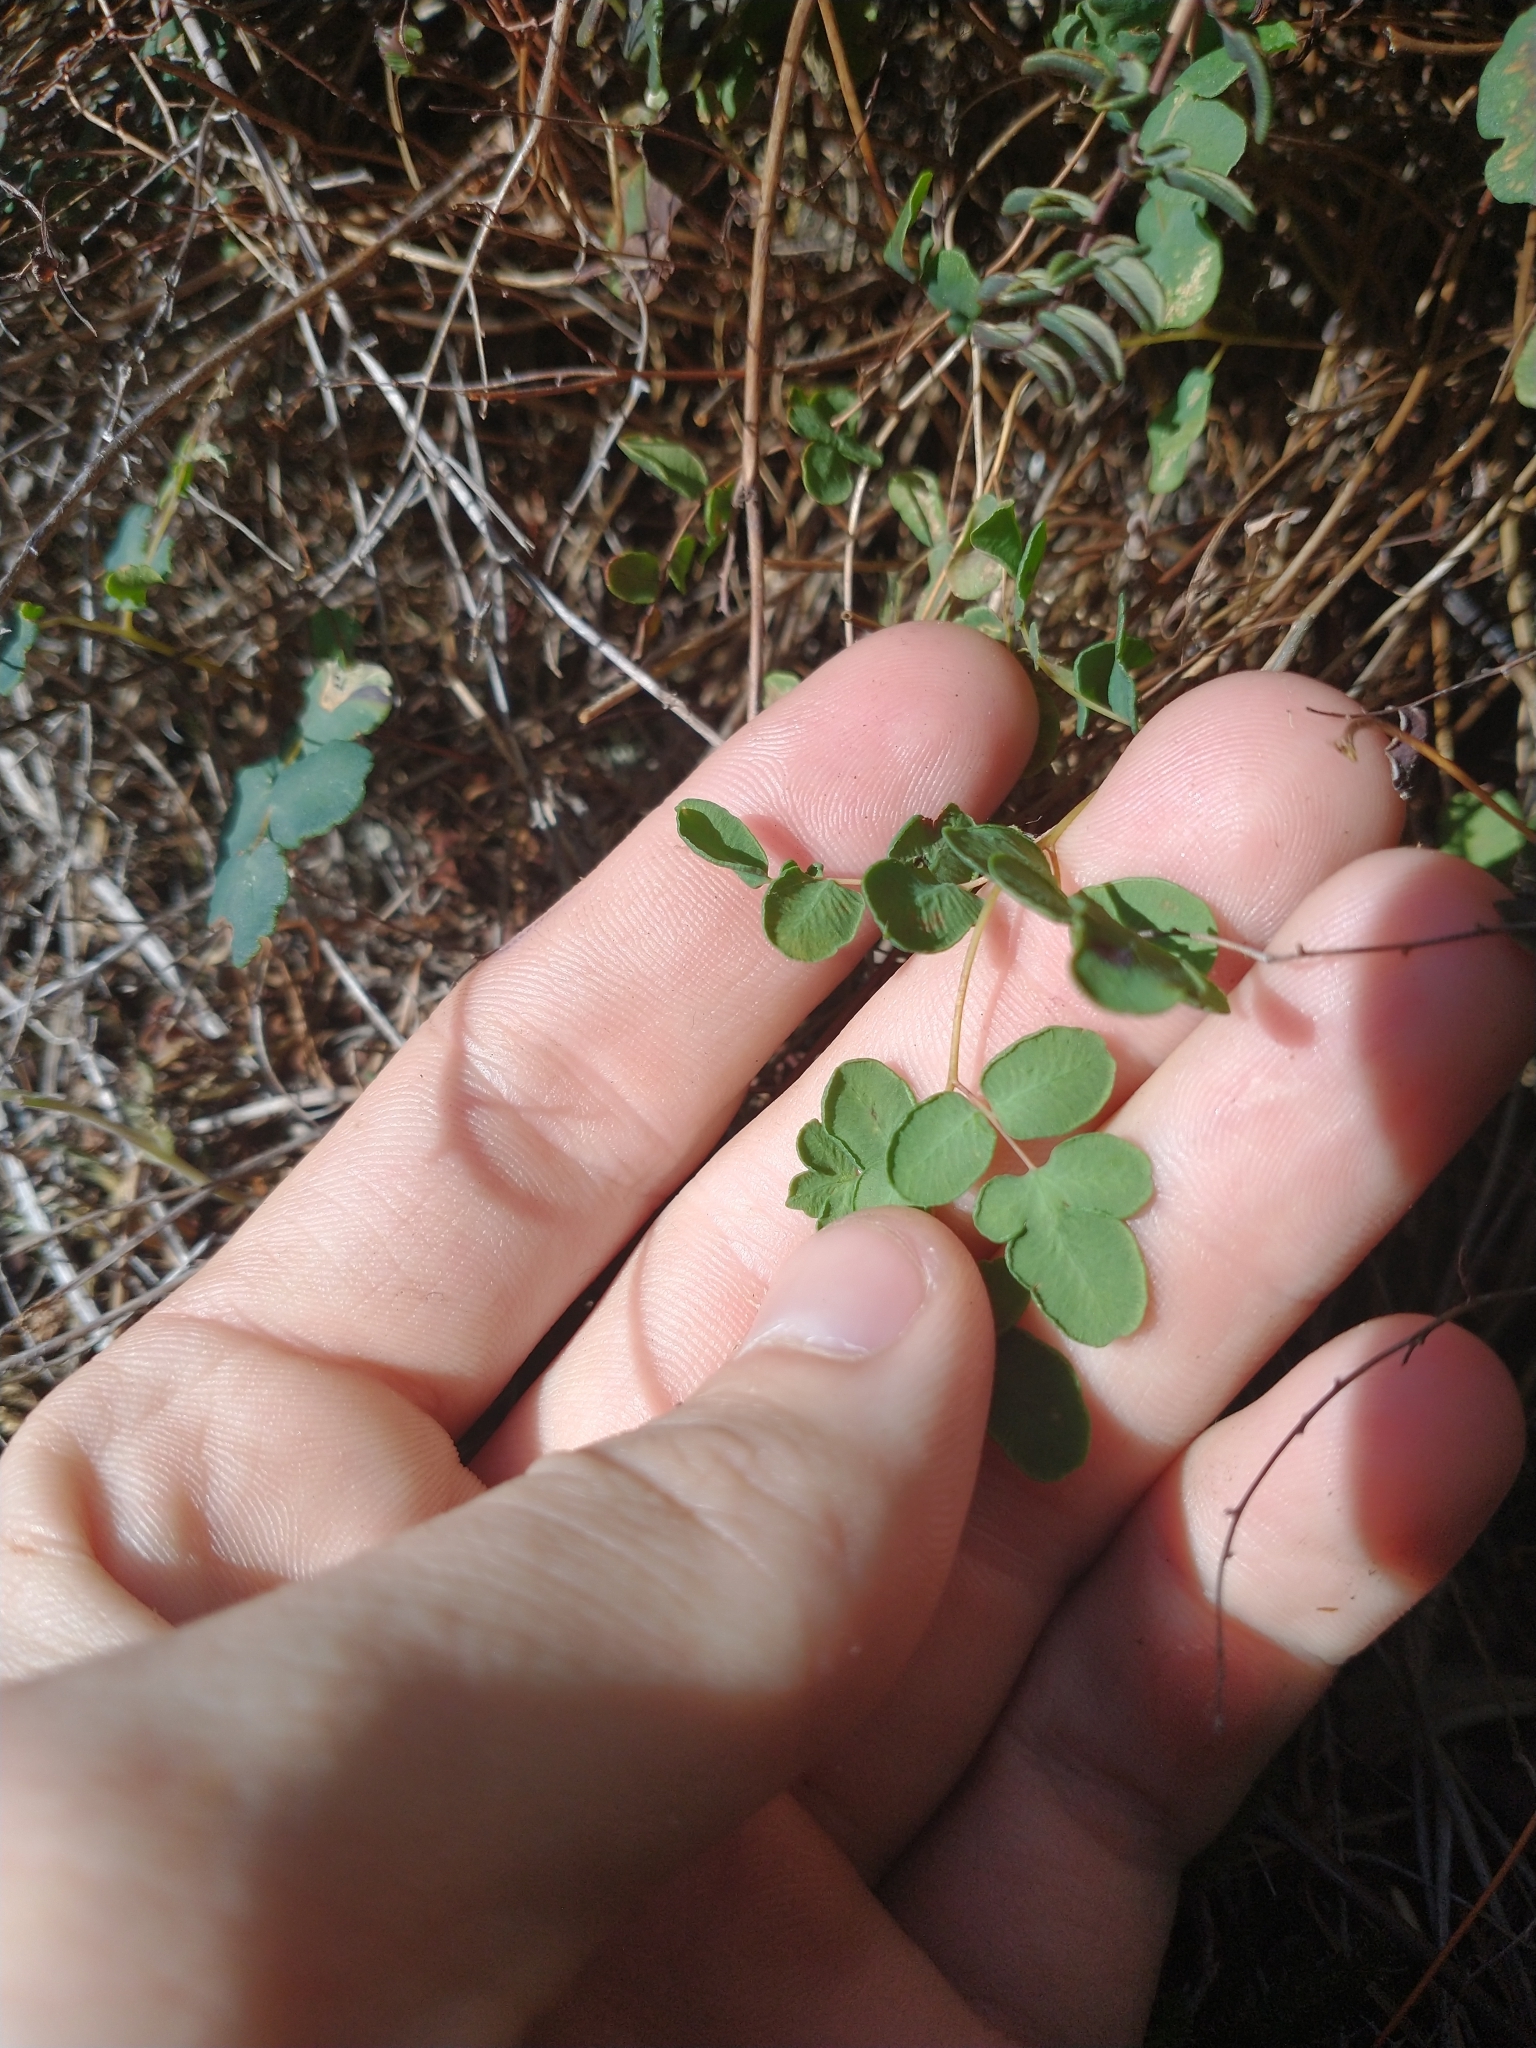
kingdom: Plantae
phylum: Tracheophyta
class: Polypodiopsida
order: Polypodiales
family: Pteridaceae
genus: Pellaea
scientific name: Pellaea andromedifolia
